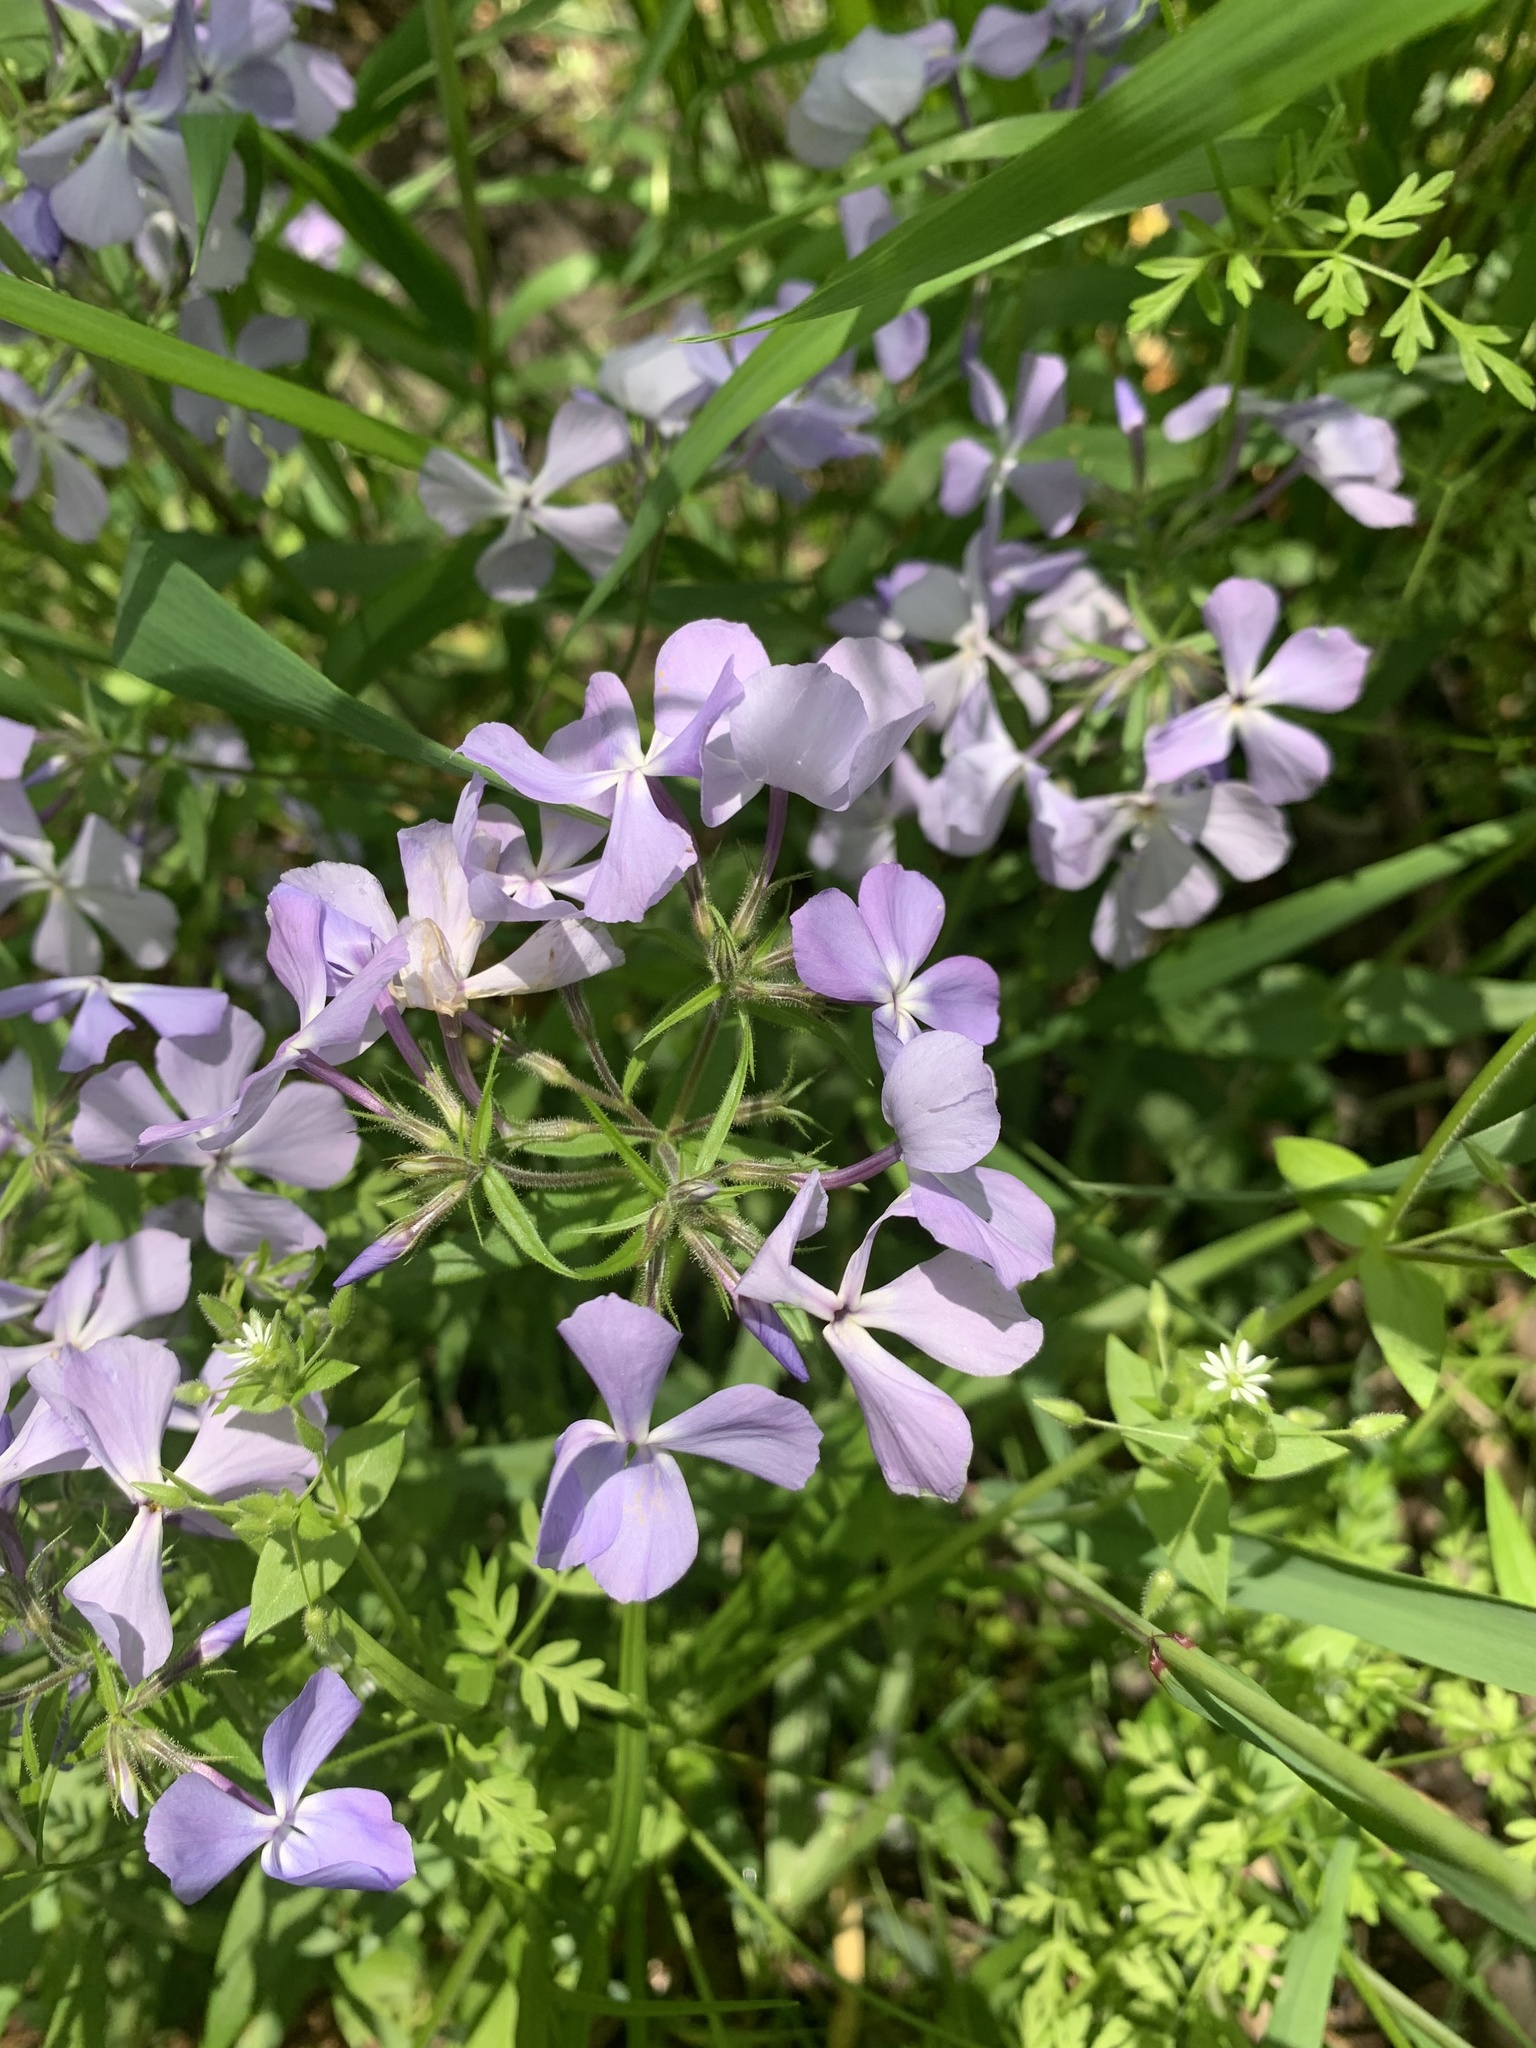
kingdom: Plantae
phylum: Tracheophyta
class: Magnoliopsida
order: Ericales
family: Polemoniaceae
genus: Phlox
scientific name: Phlox divaricata
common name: Blue phlox
